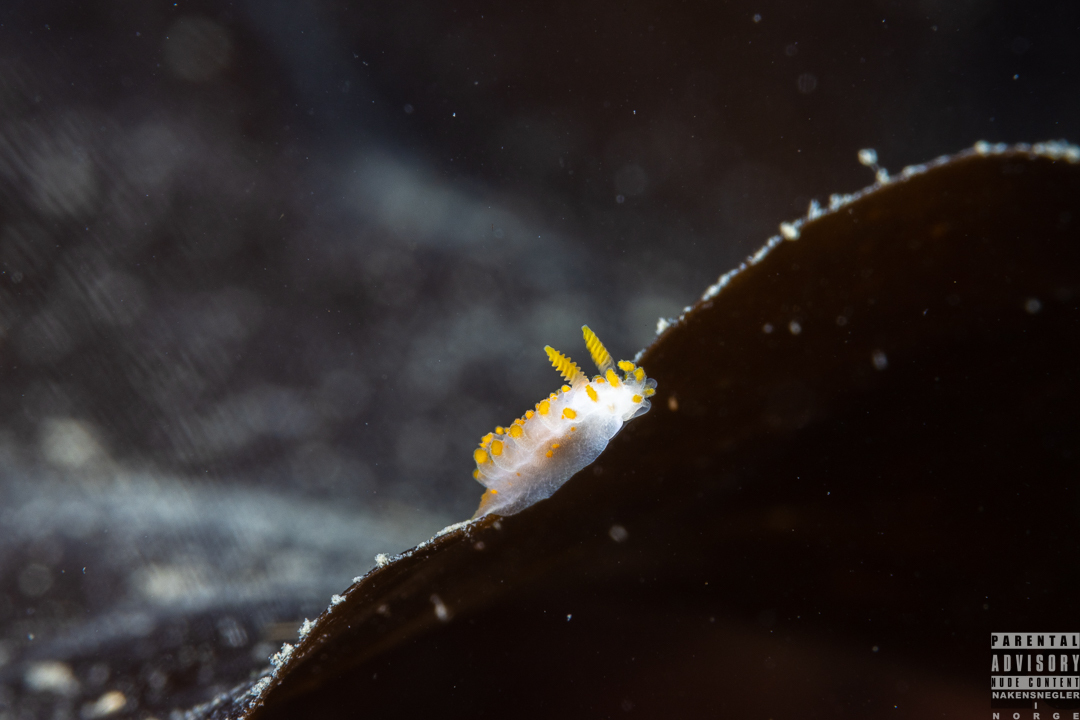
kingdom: Animalia
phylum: Mollusca
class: Gastropoda
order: Nudibranchia
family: Polyceridae
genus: Limacia
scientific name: Limacia clavigera
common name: Orange-clubbed sea slug
